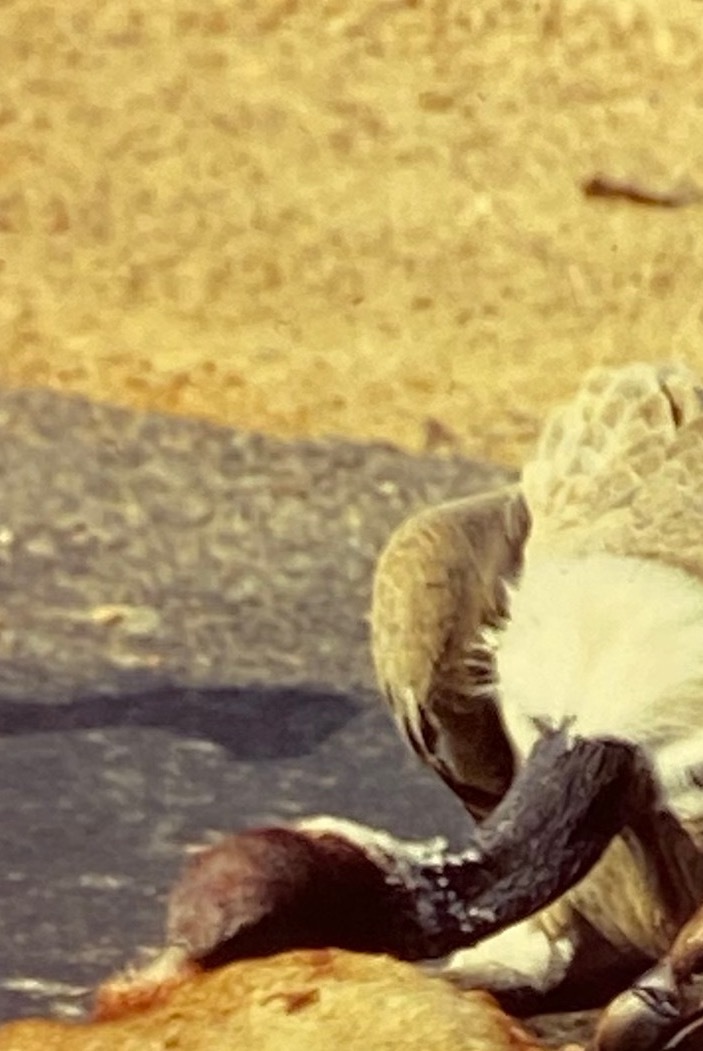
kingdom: Animalia
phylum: Chordata
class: Aves
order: Accipitriformes
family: Accipitridae
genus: Gyps
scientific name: Gyps indicus
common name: Indian vulture
